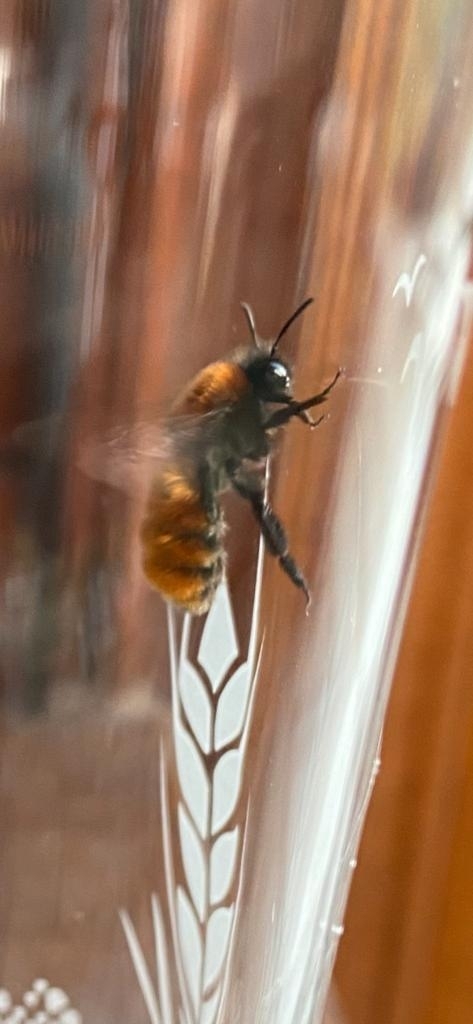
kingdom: Animalia
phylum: Arthropoda
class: Insecta
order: Hymenoptera
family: Andrenidae
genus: Andrena
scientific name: Andrena fulva
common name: Tawny mining bee
